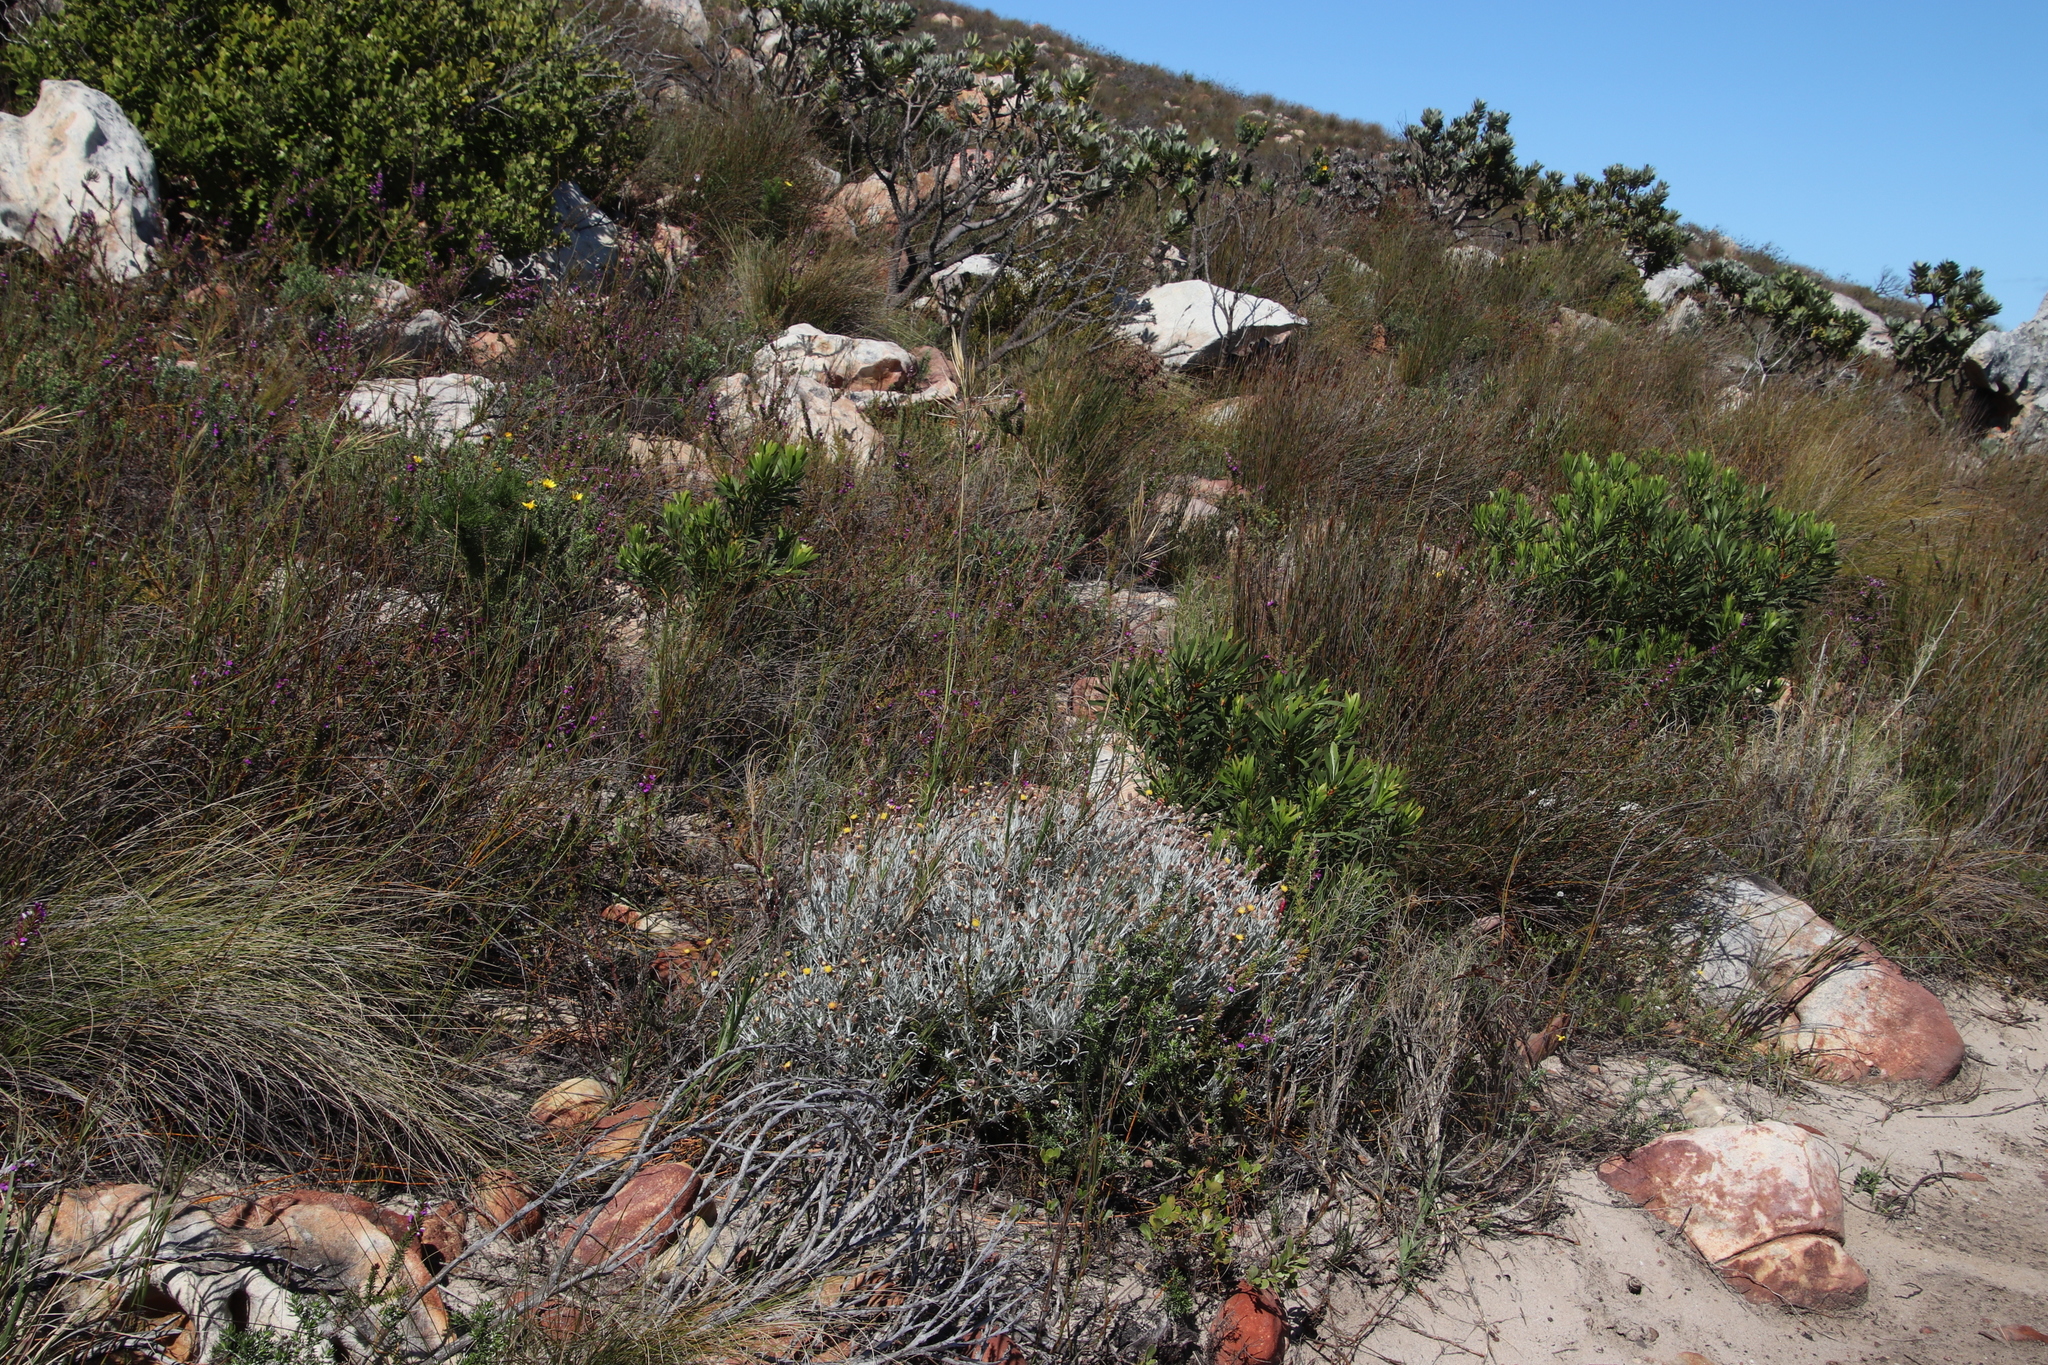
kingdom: Plantae
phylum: Tracheophyta
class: Magnoliopsida
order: Asterales
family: Asteraceae
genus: Syncarpha
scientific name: Syncarpha gnaphaloides
